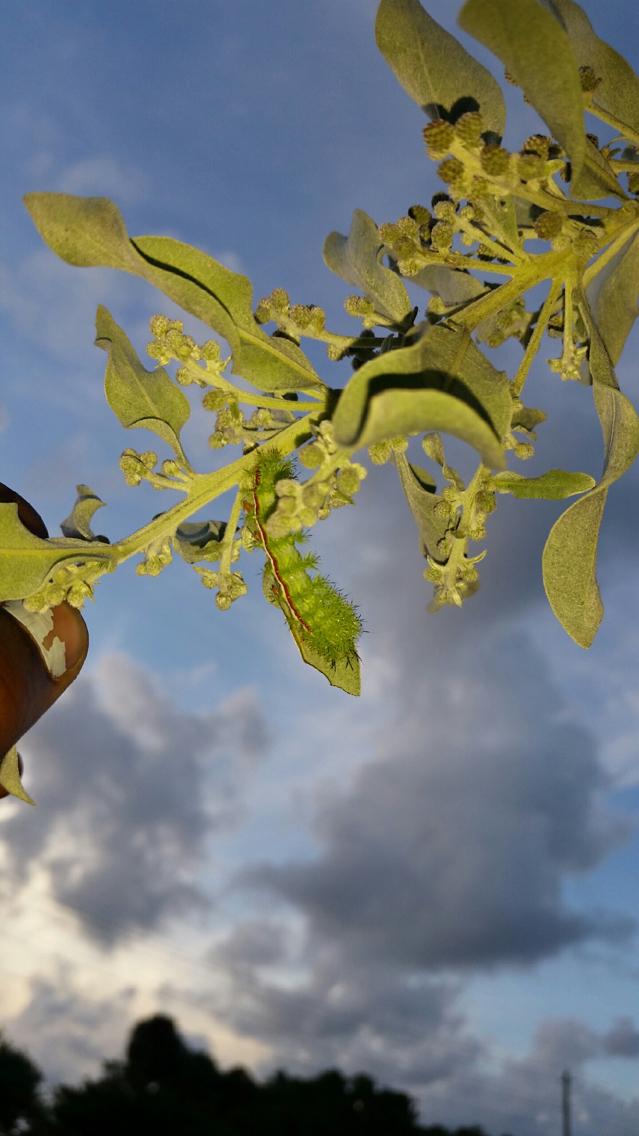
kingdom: Animalia
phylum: Arthropoda
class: Insecta
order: Lepidoptera
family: Saturniidae
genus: Automeris
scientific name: Automeris io
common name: Io moth
